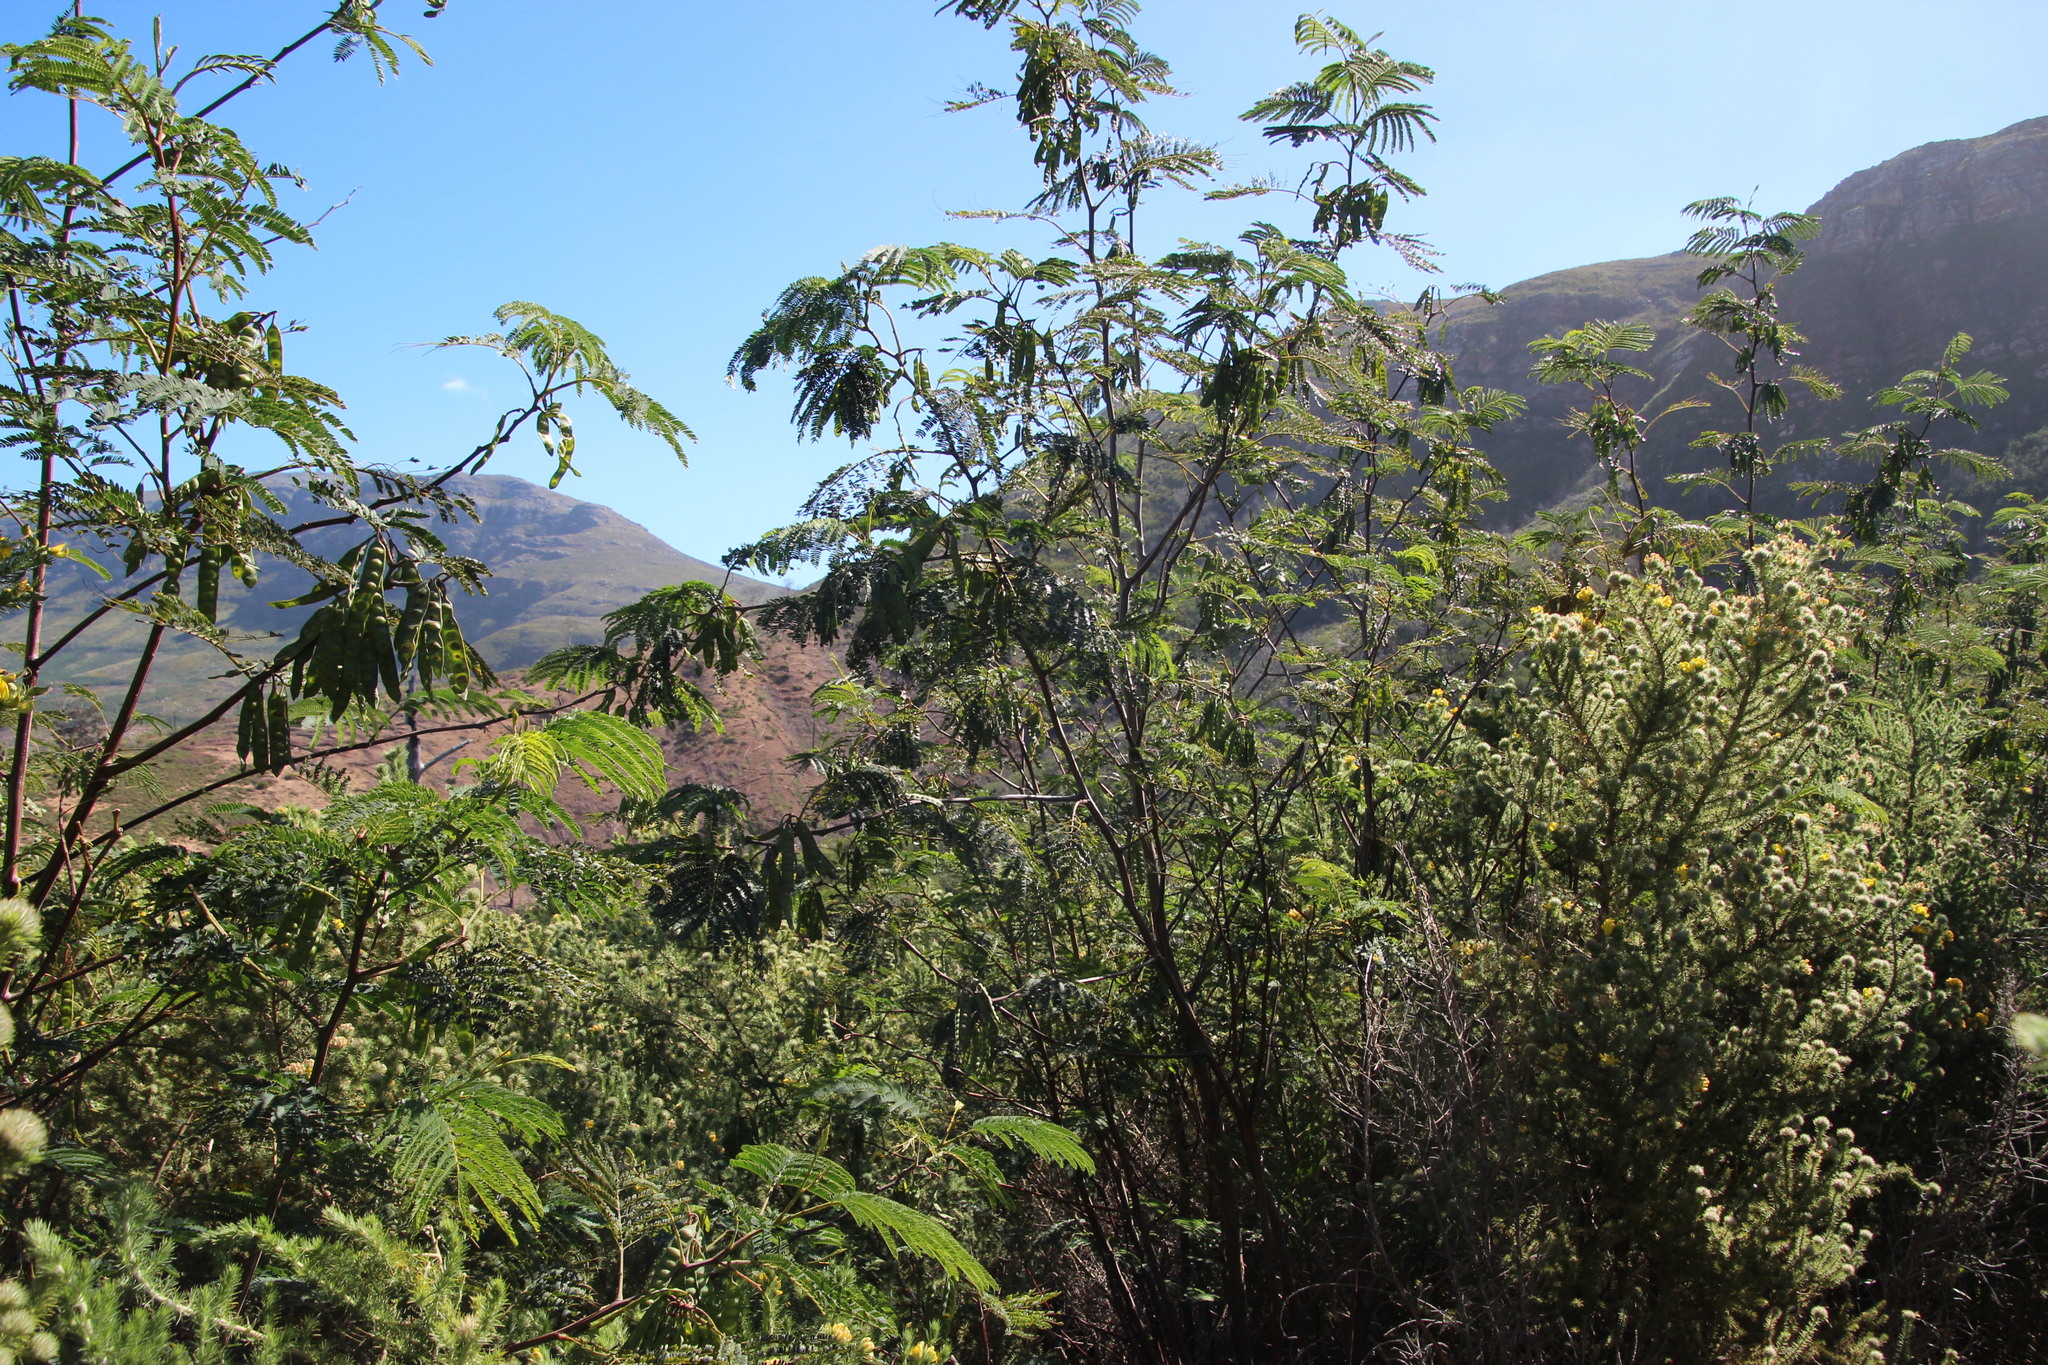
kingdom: Plantae
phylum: Tracheophyta
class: Magnoliopsida
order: Fabales
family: Fabaceae
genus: Paraserianthes
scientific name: Paraserianthes lophantha
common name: Plume albizia
